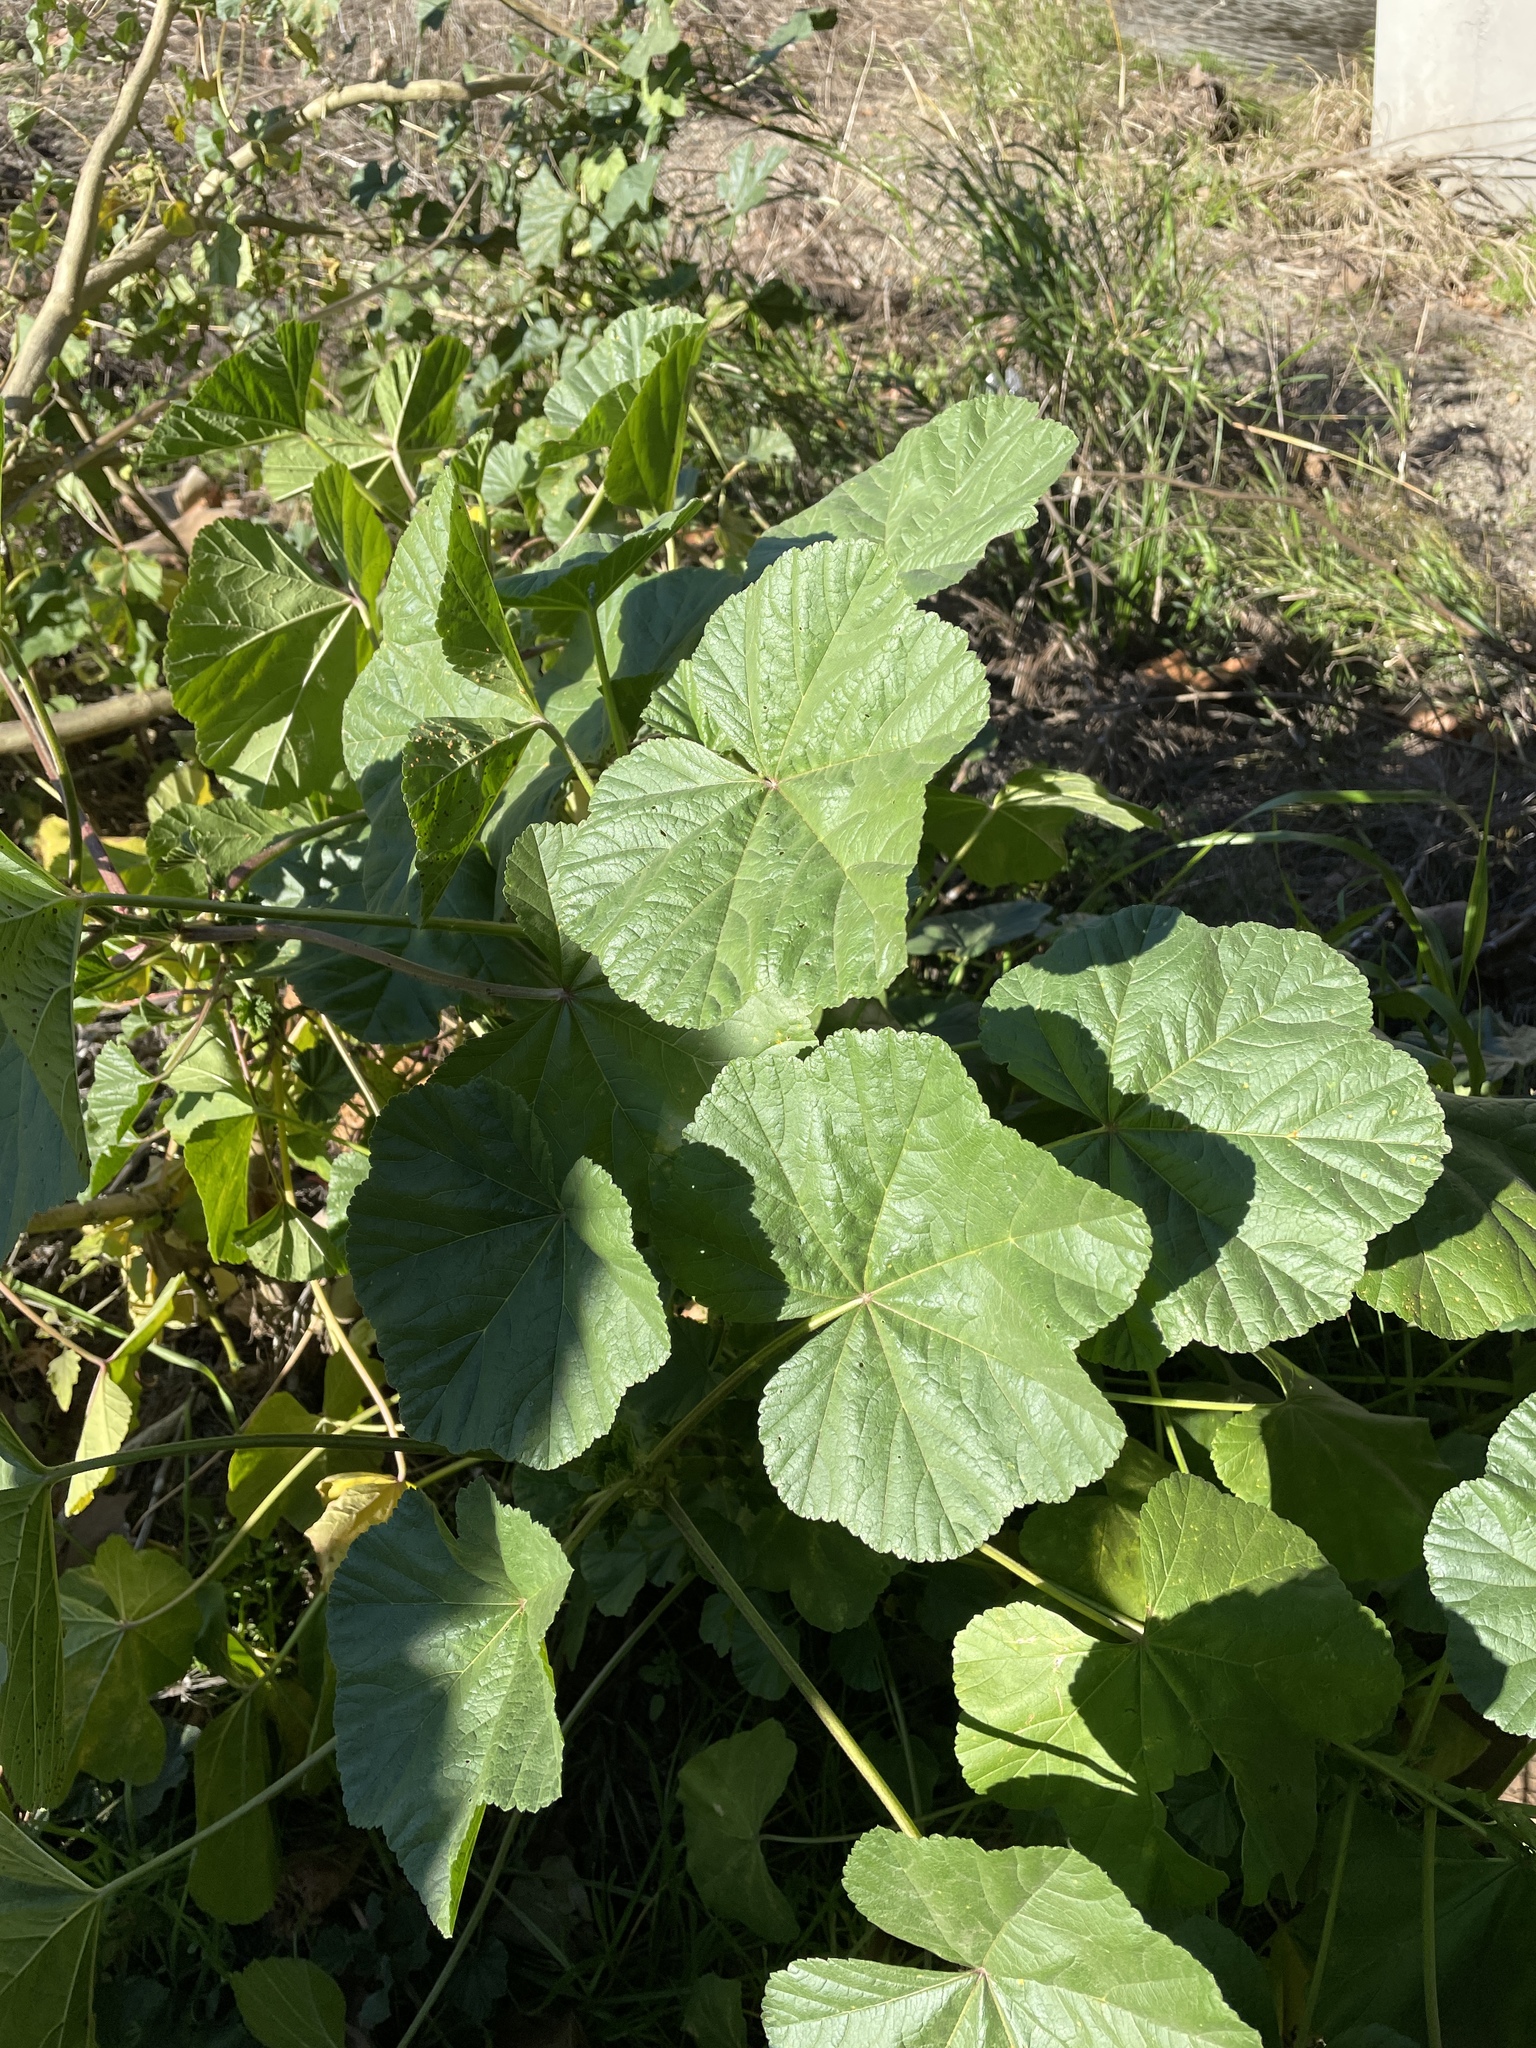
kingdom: Plantae
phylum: Tracheophyta
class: Magnoliopsida
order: Malvales
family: Malvaceae
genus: Malva
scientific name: Malva
